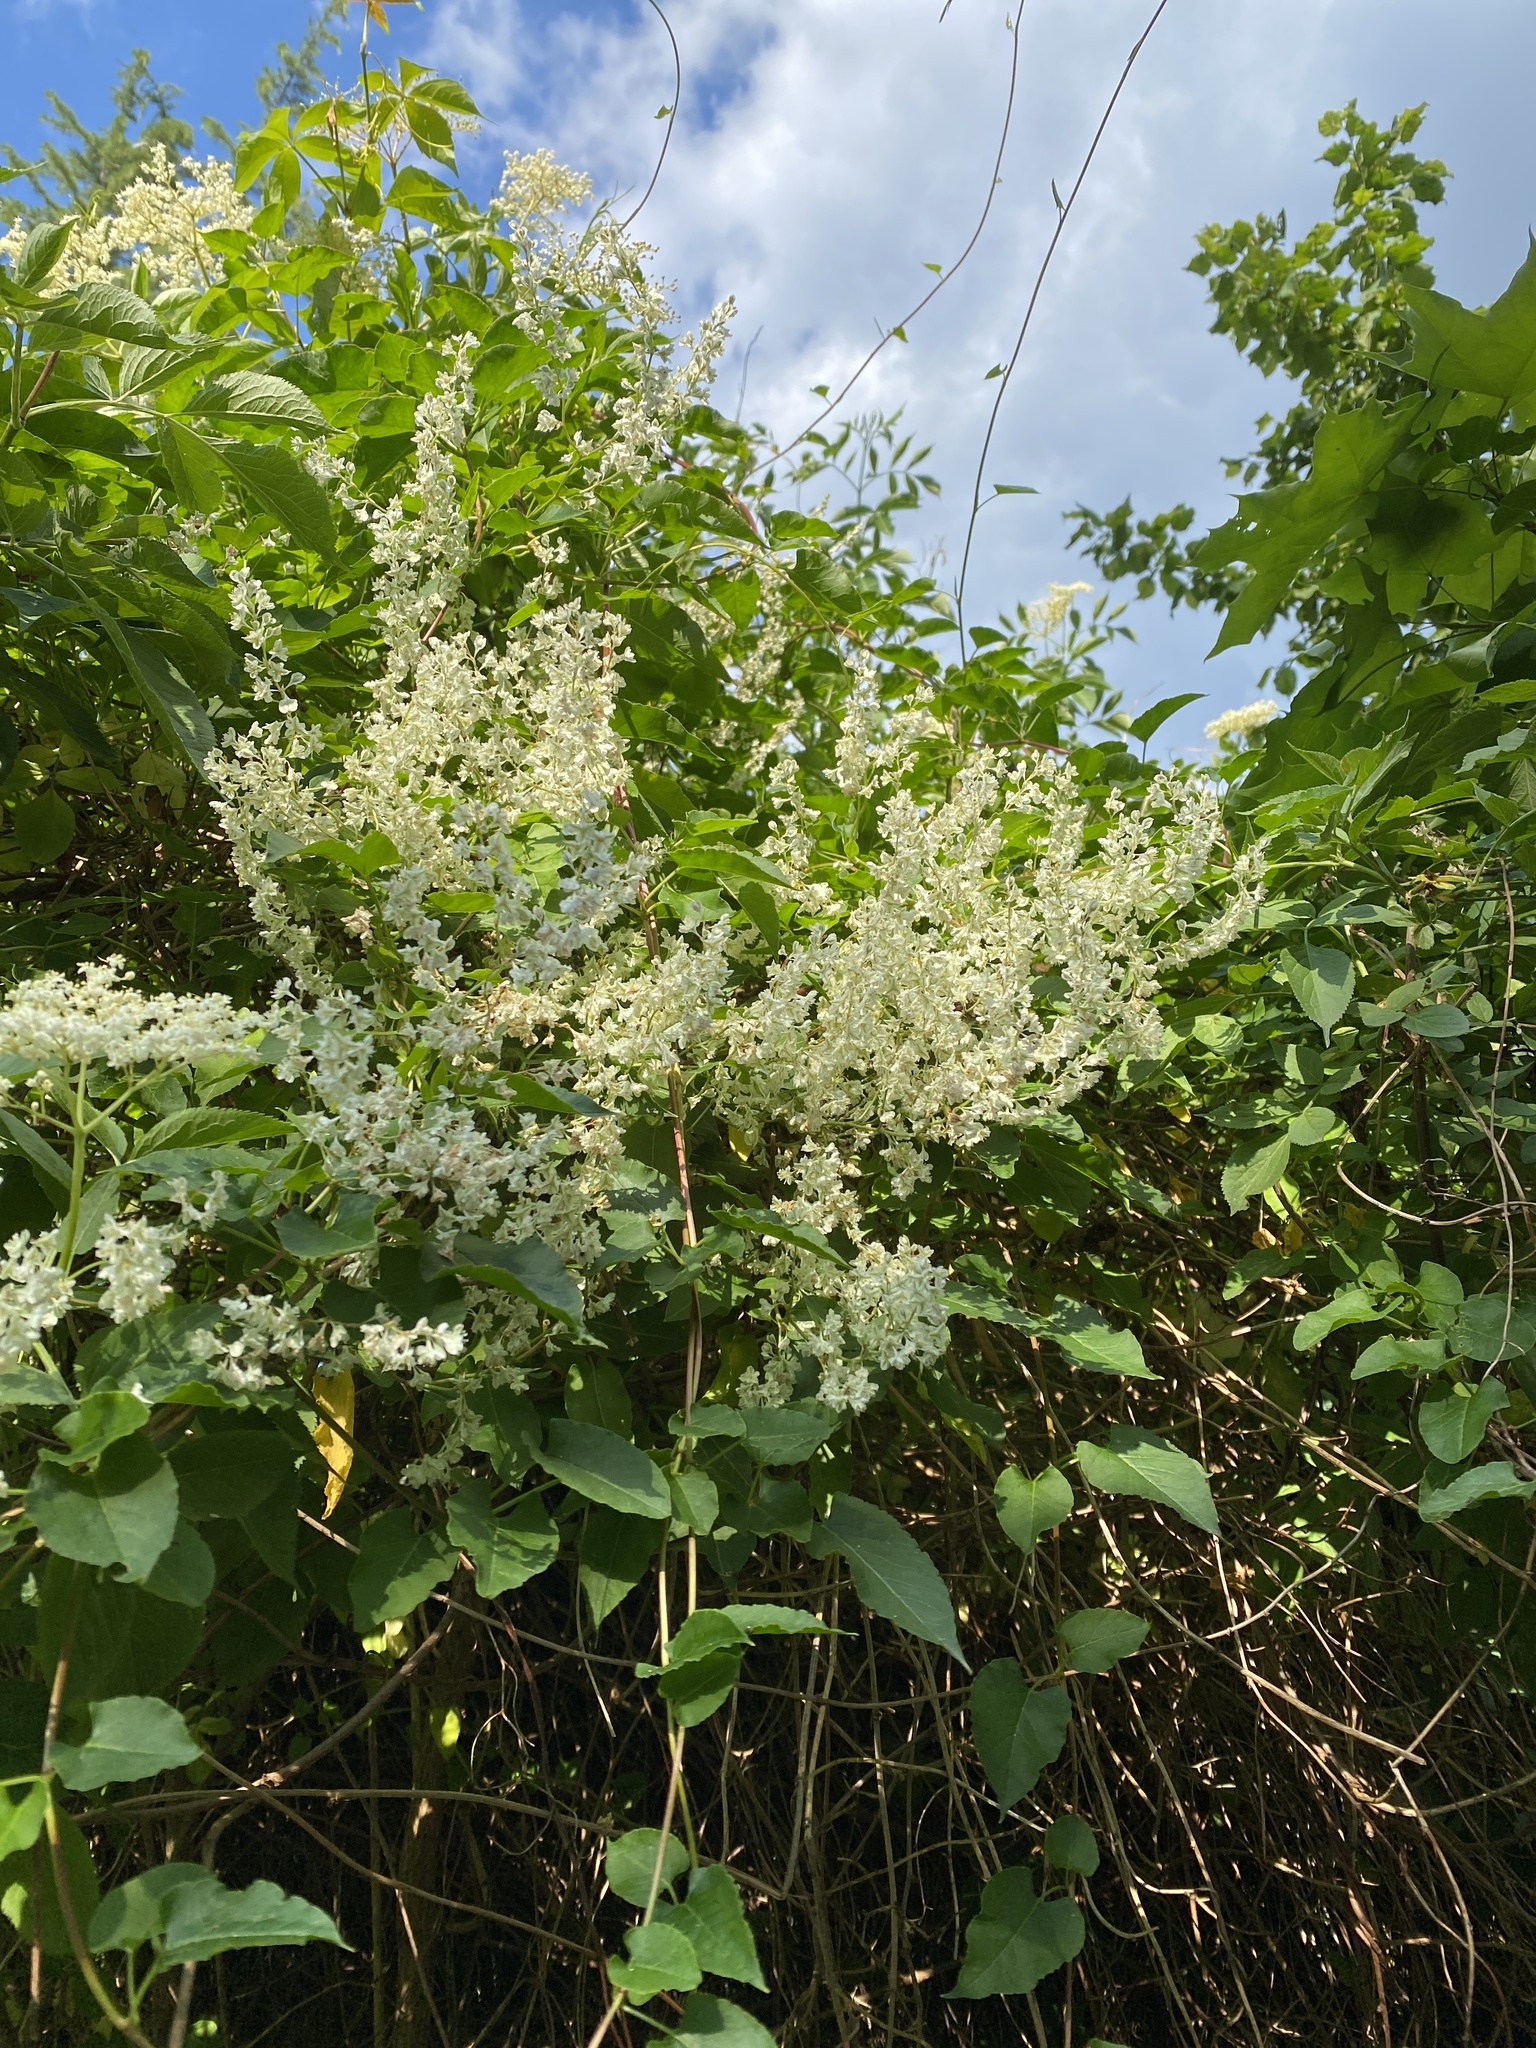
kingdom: Plantae
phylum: Tracheophyta
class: Magnoliopsida
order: Caryophyllales
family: Polygonaceae
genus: Fallopia
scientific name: Fallopia baldschuanica
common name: Russian-vine
